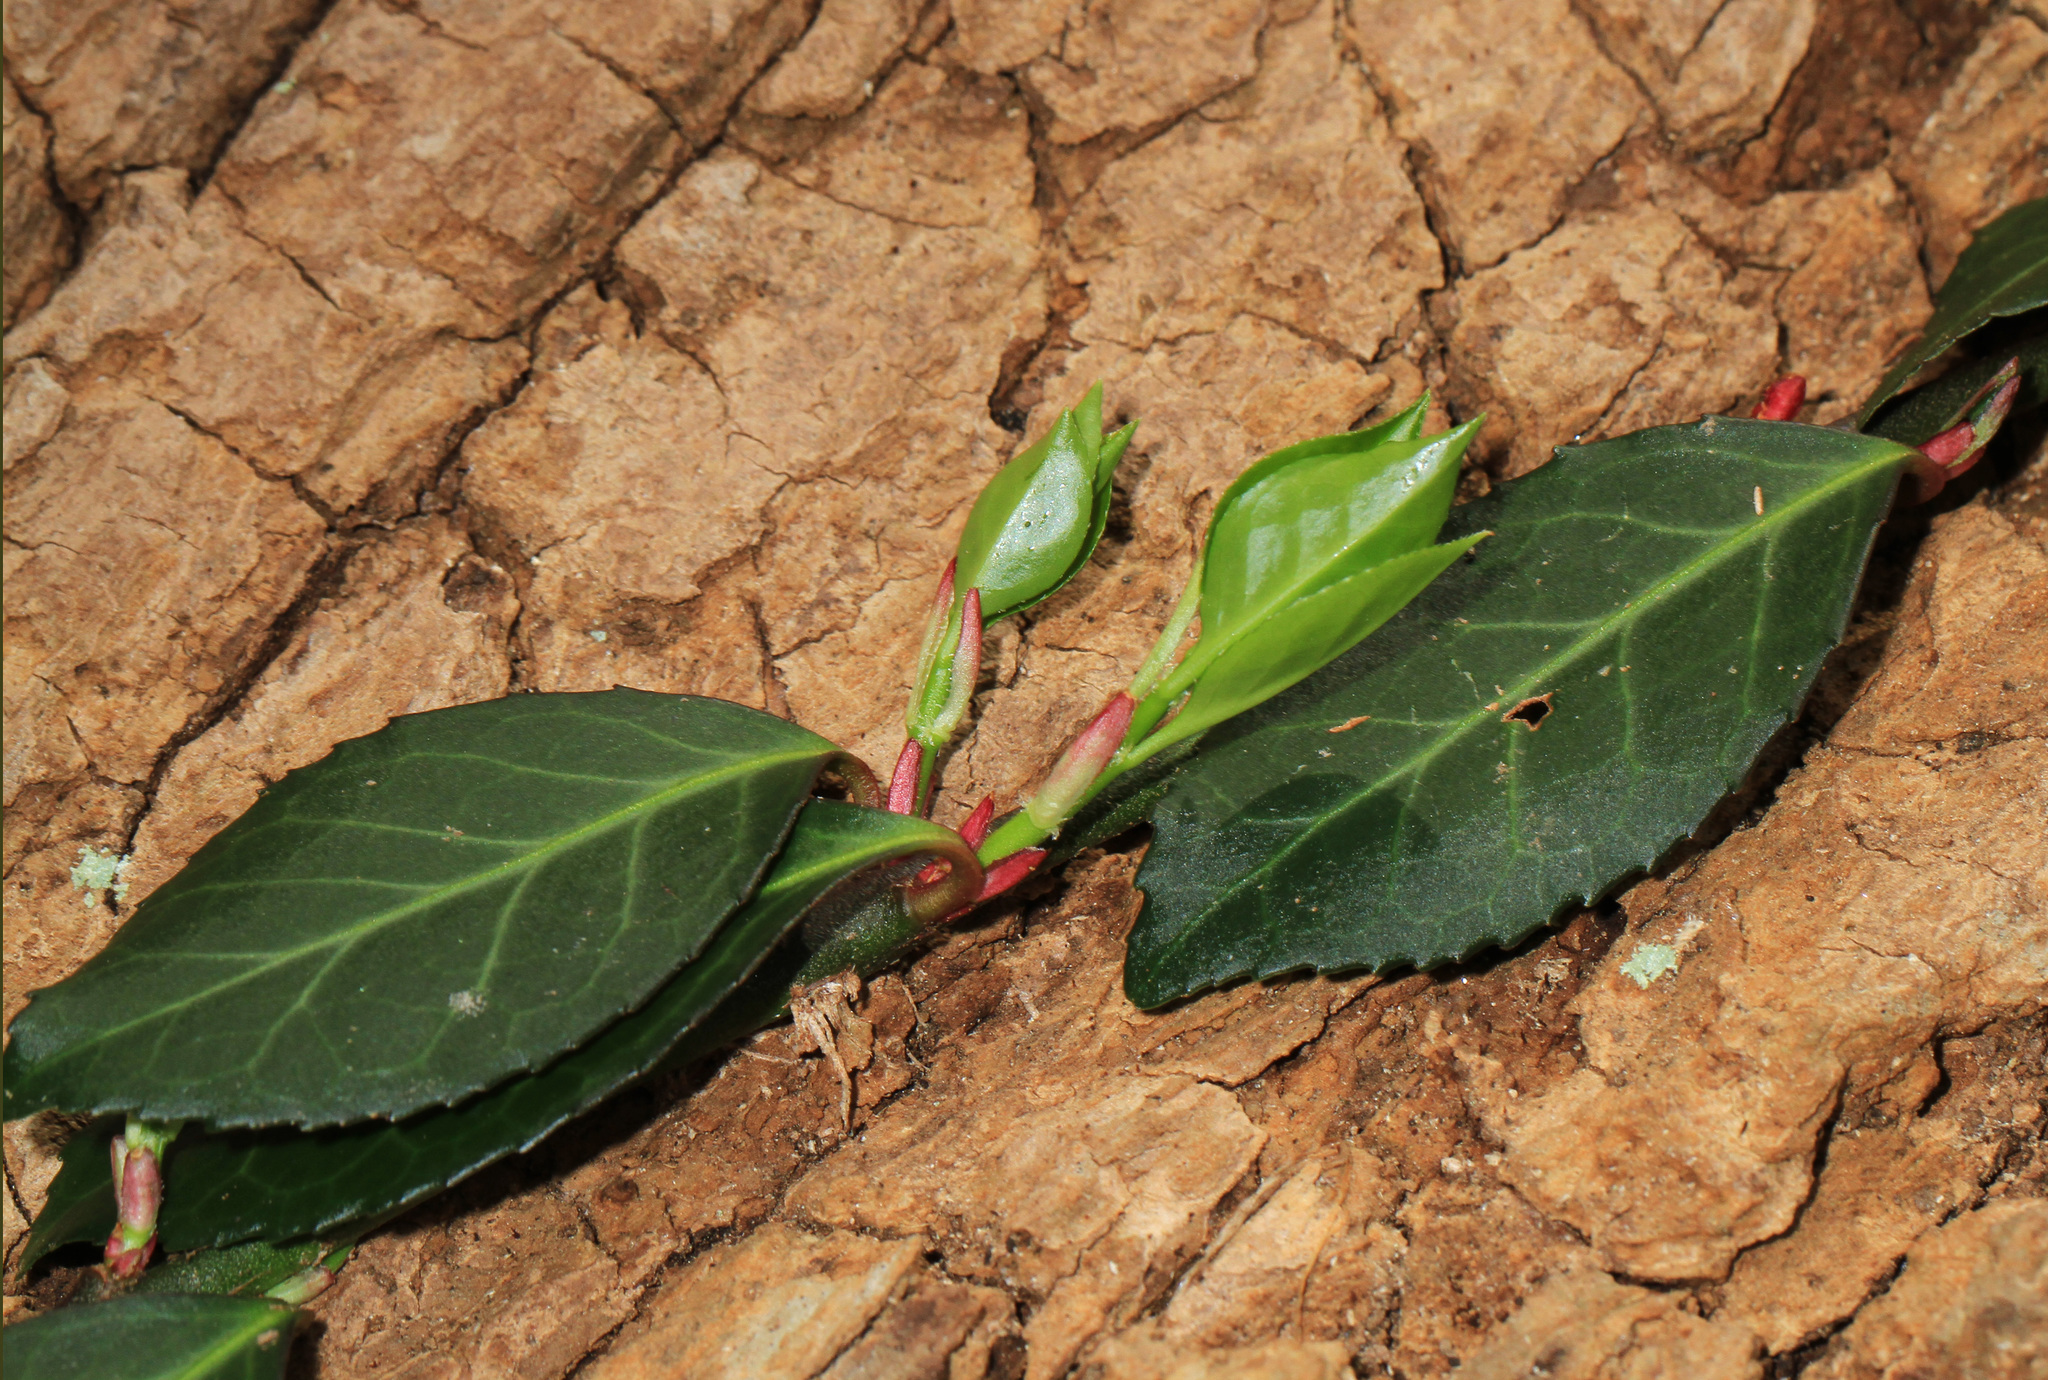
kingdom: Plantae
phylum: Tracheophyta
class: Magnoliopsida
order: Celastrales
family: Celastraceae
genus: Euonymus
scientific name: Euonymus fortunei
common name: Climbing euonymus
